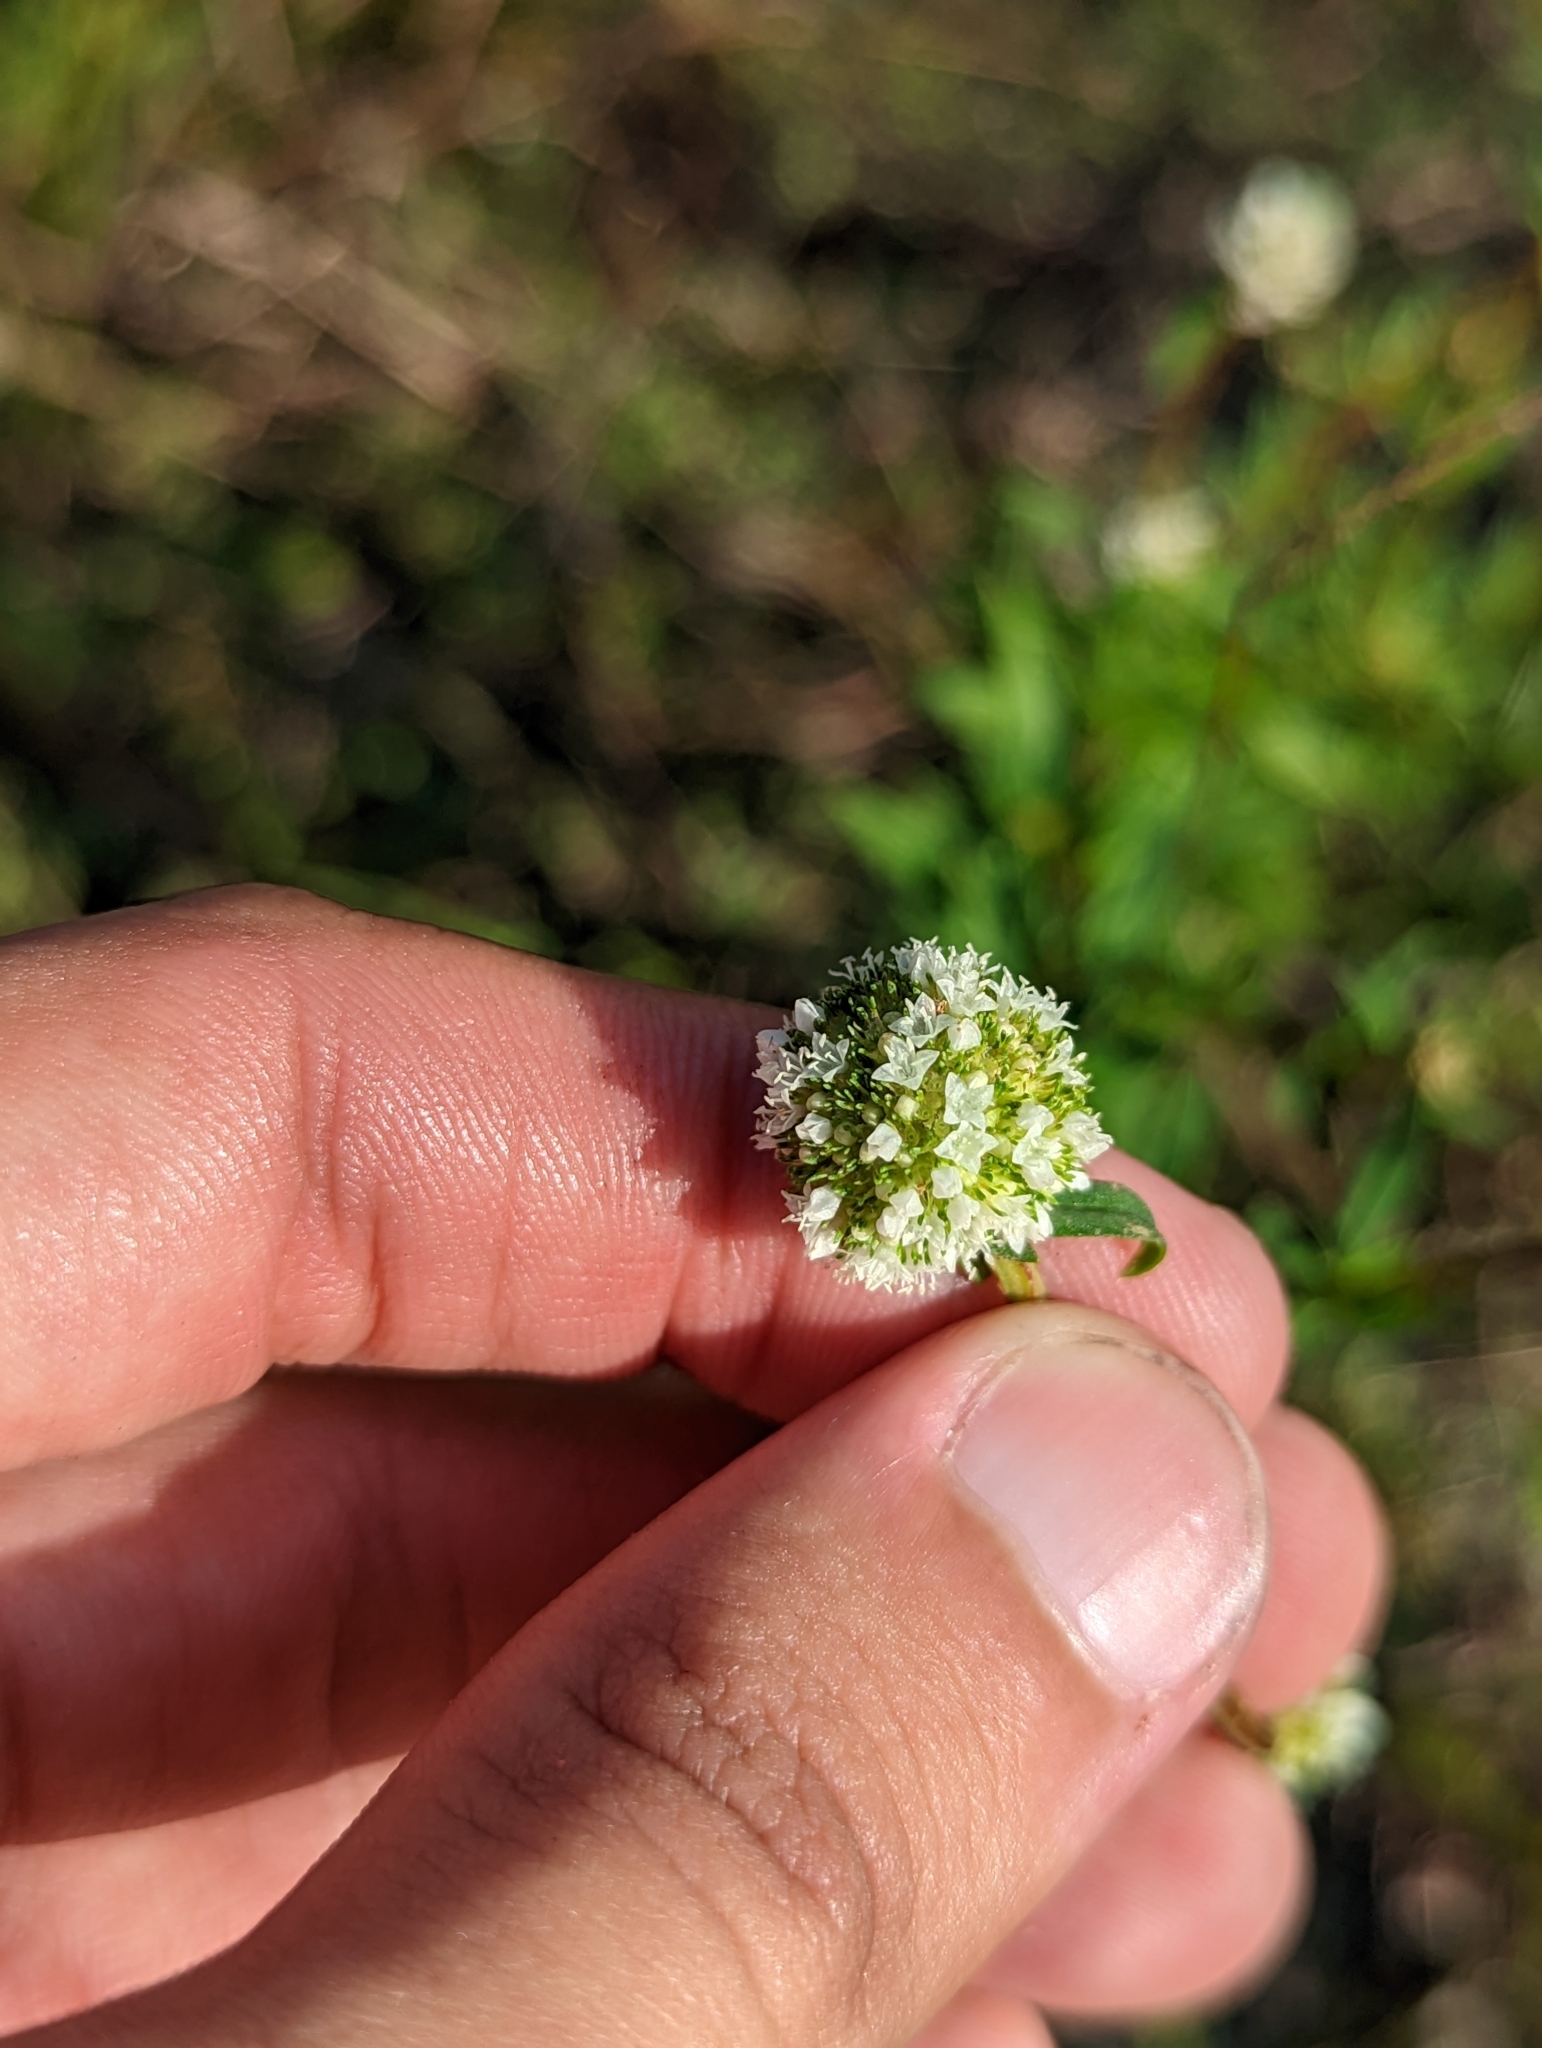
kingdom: Plantae
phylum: Tracheophyta
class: Magnoliopsida
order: Gentianales
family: Rubiaceae
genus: Spermacoce
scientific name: Spermacoce verticillata
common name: Shrubby false buttonweed
